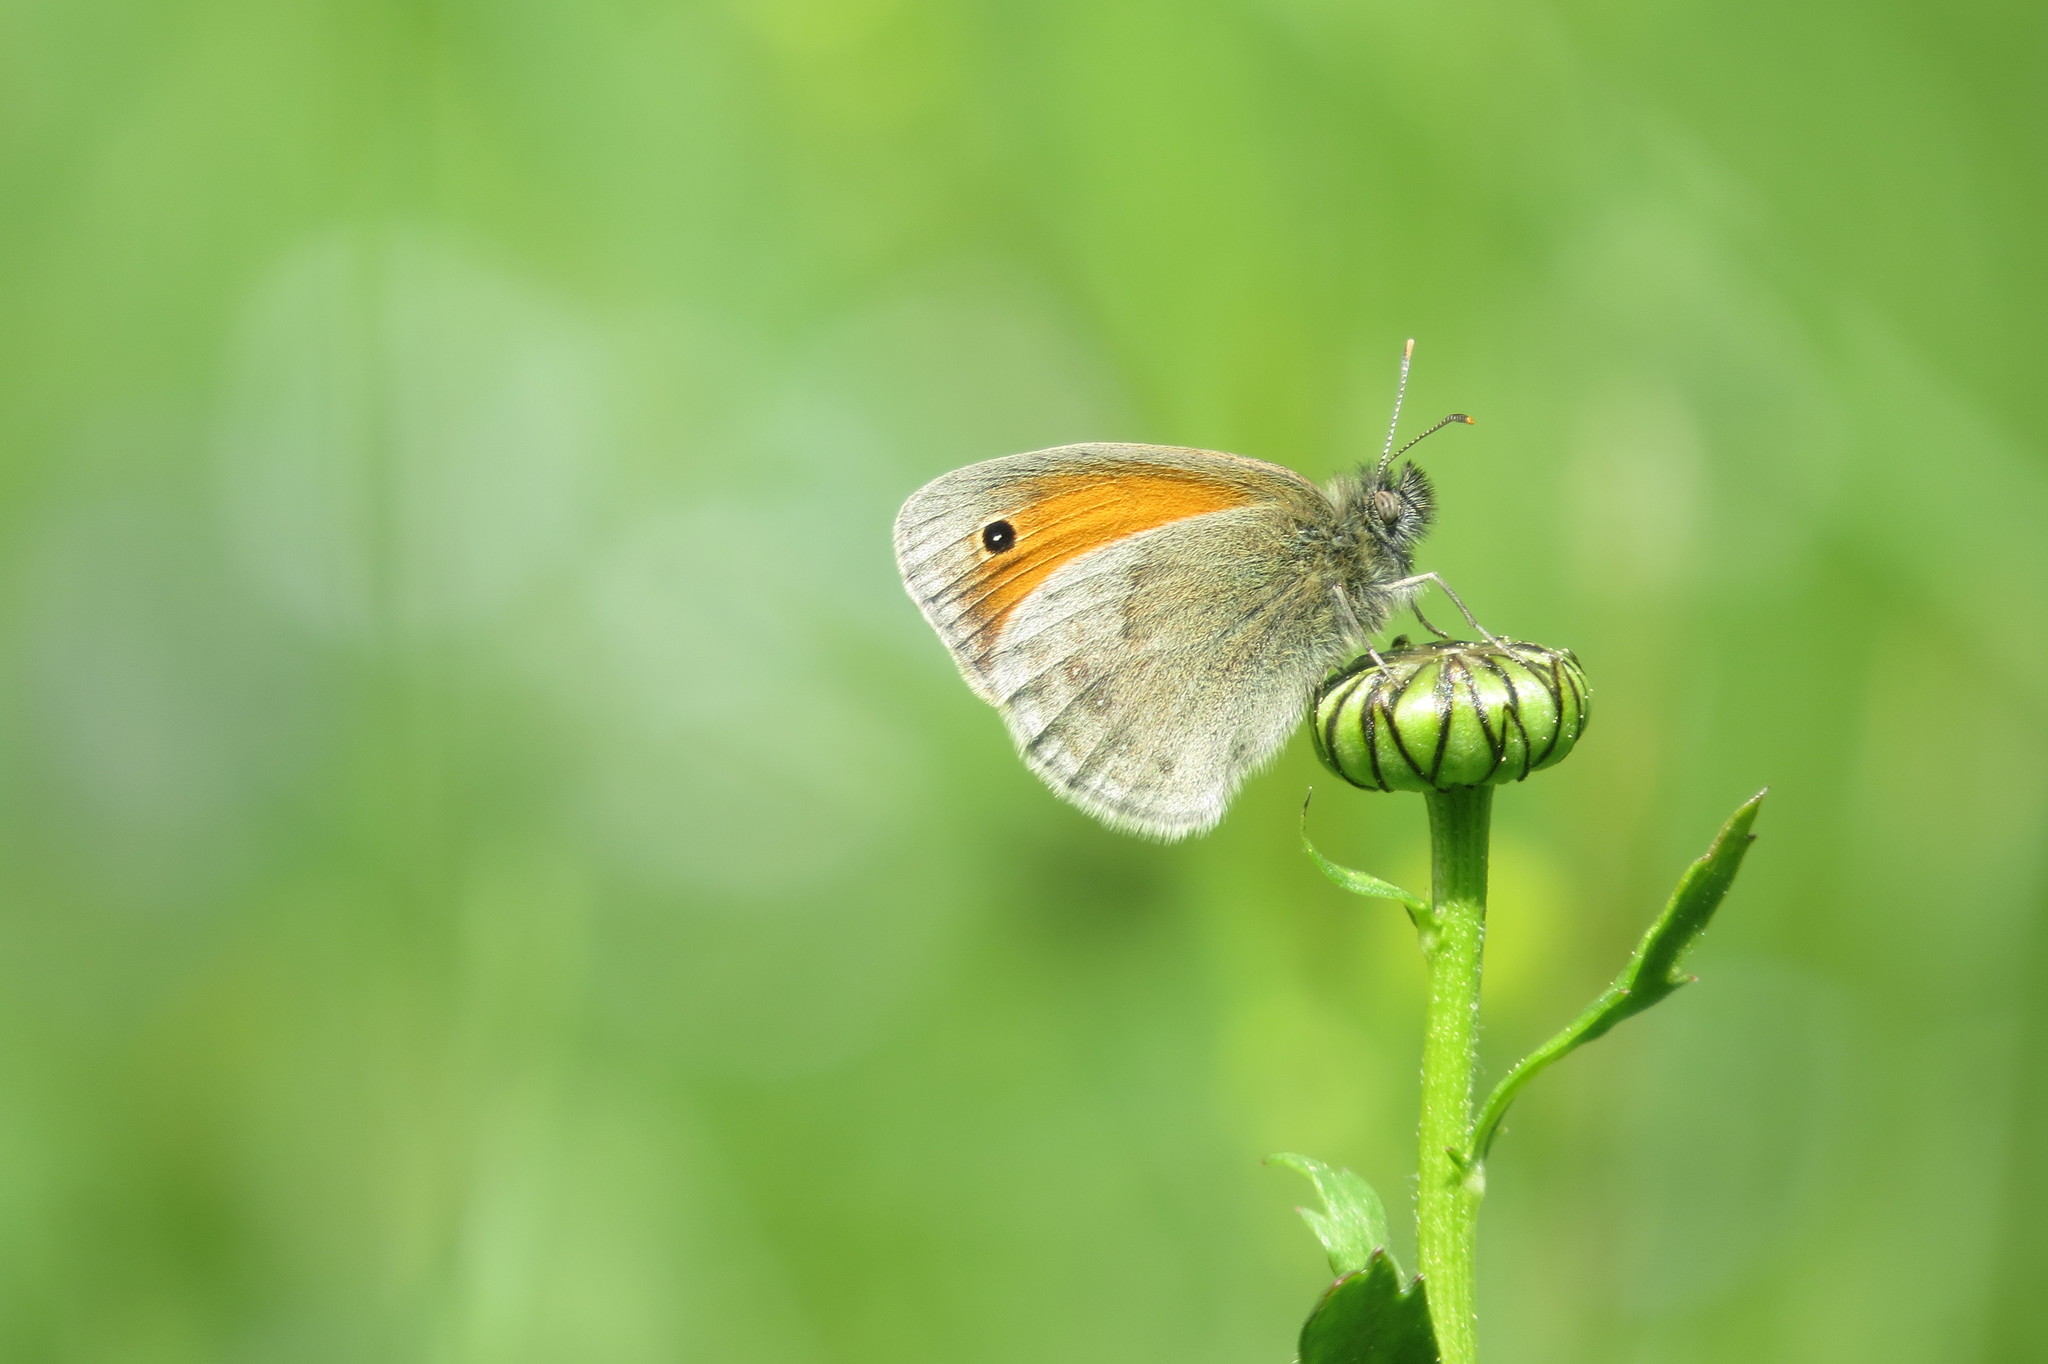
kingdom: Animalia
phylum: Arthropoda
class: Insecta
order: Lepidoptera
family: Nymphalidae
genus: Coenonympha
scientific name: Coenonympha pamphilus
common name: Small heath
